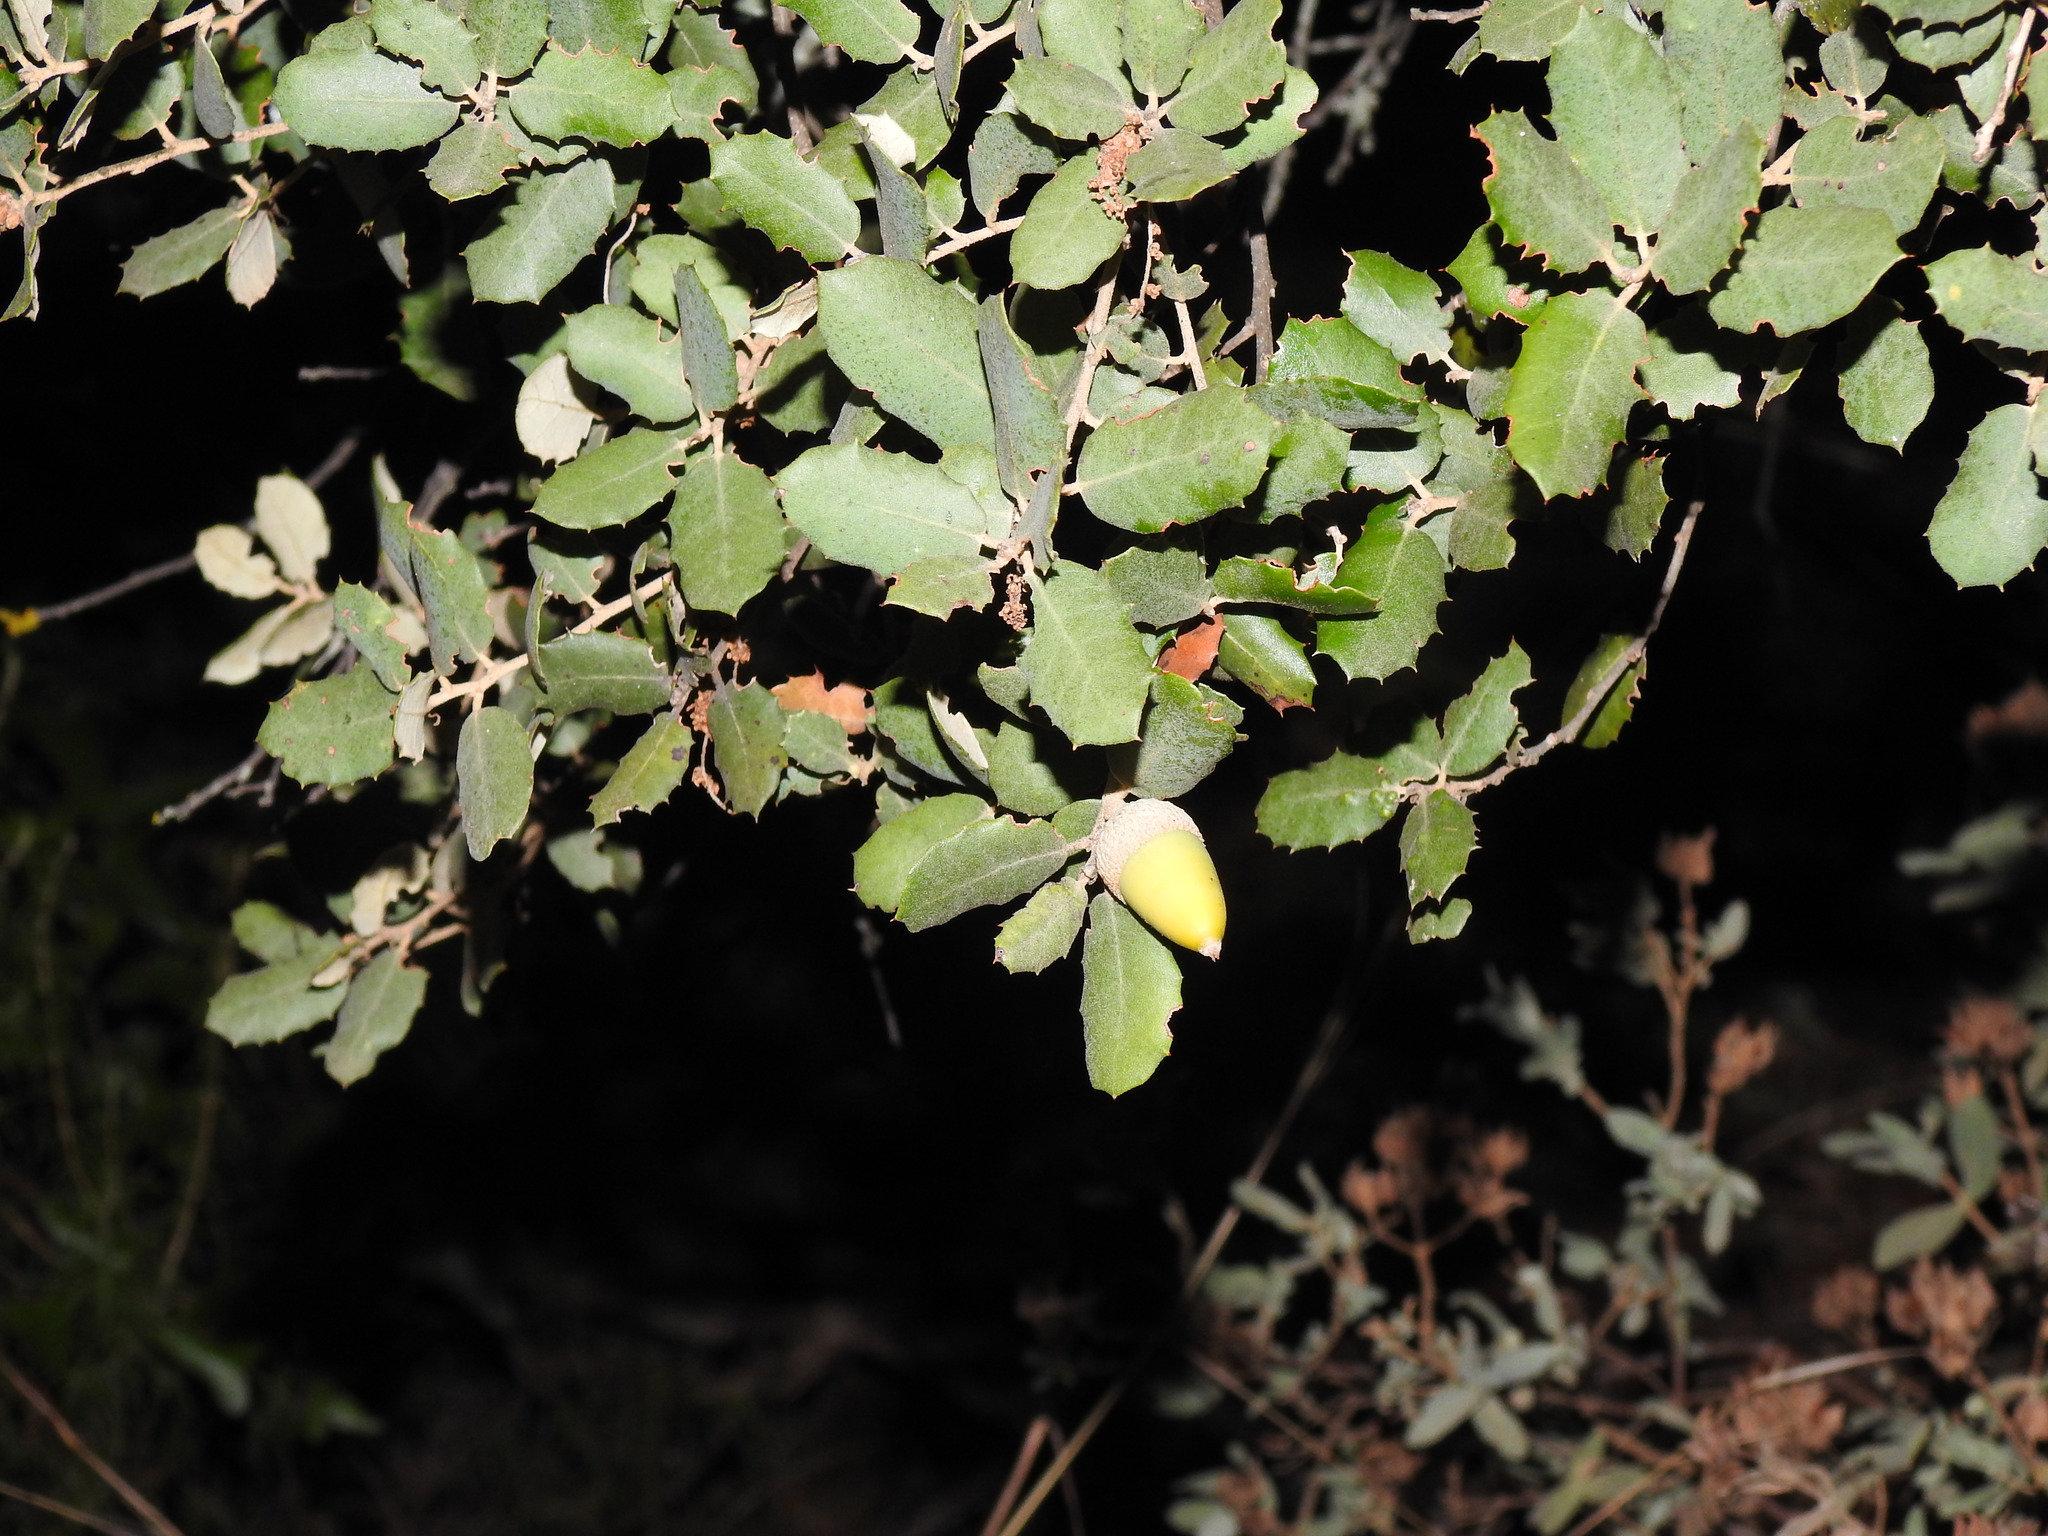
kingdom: Plantae
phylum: Tracheophyta
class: Magnoliopsida
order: Fagales
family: Fagaceae
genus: Quercus
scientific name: Quercus rotundifolia
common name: Holm oak
